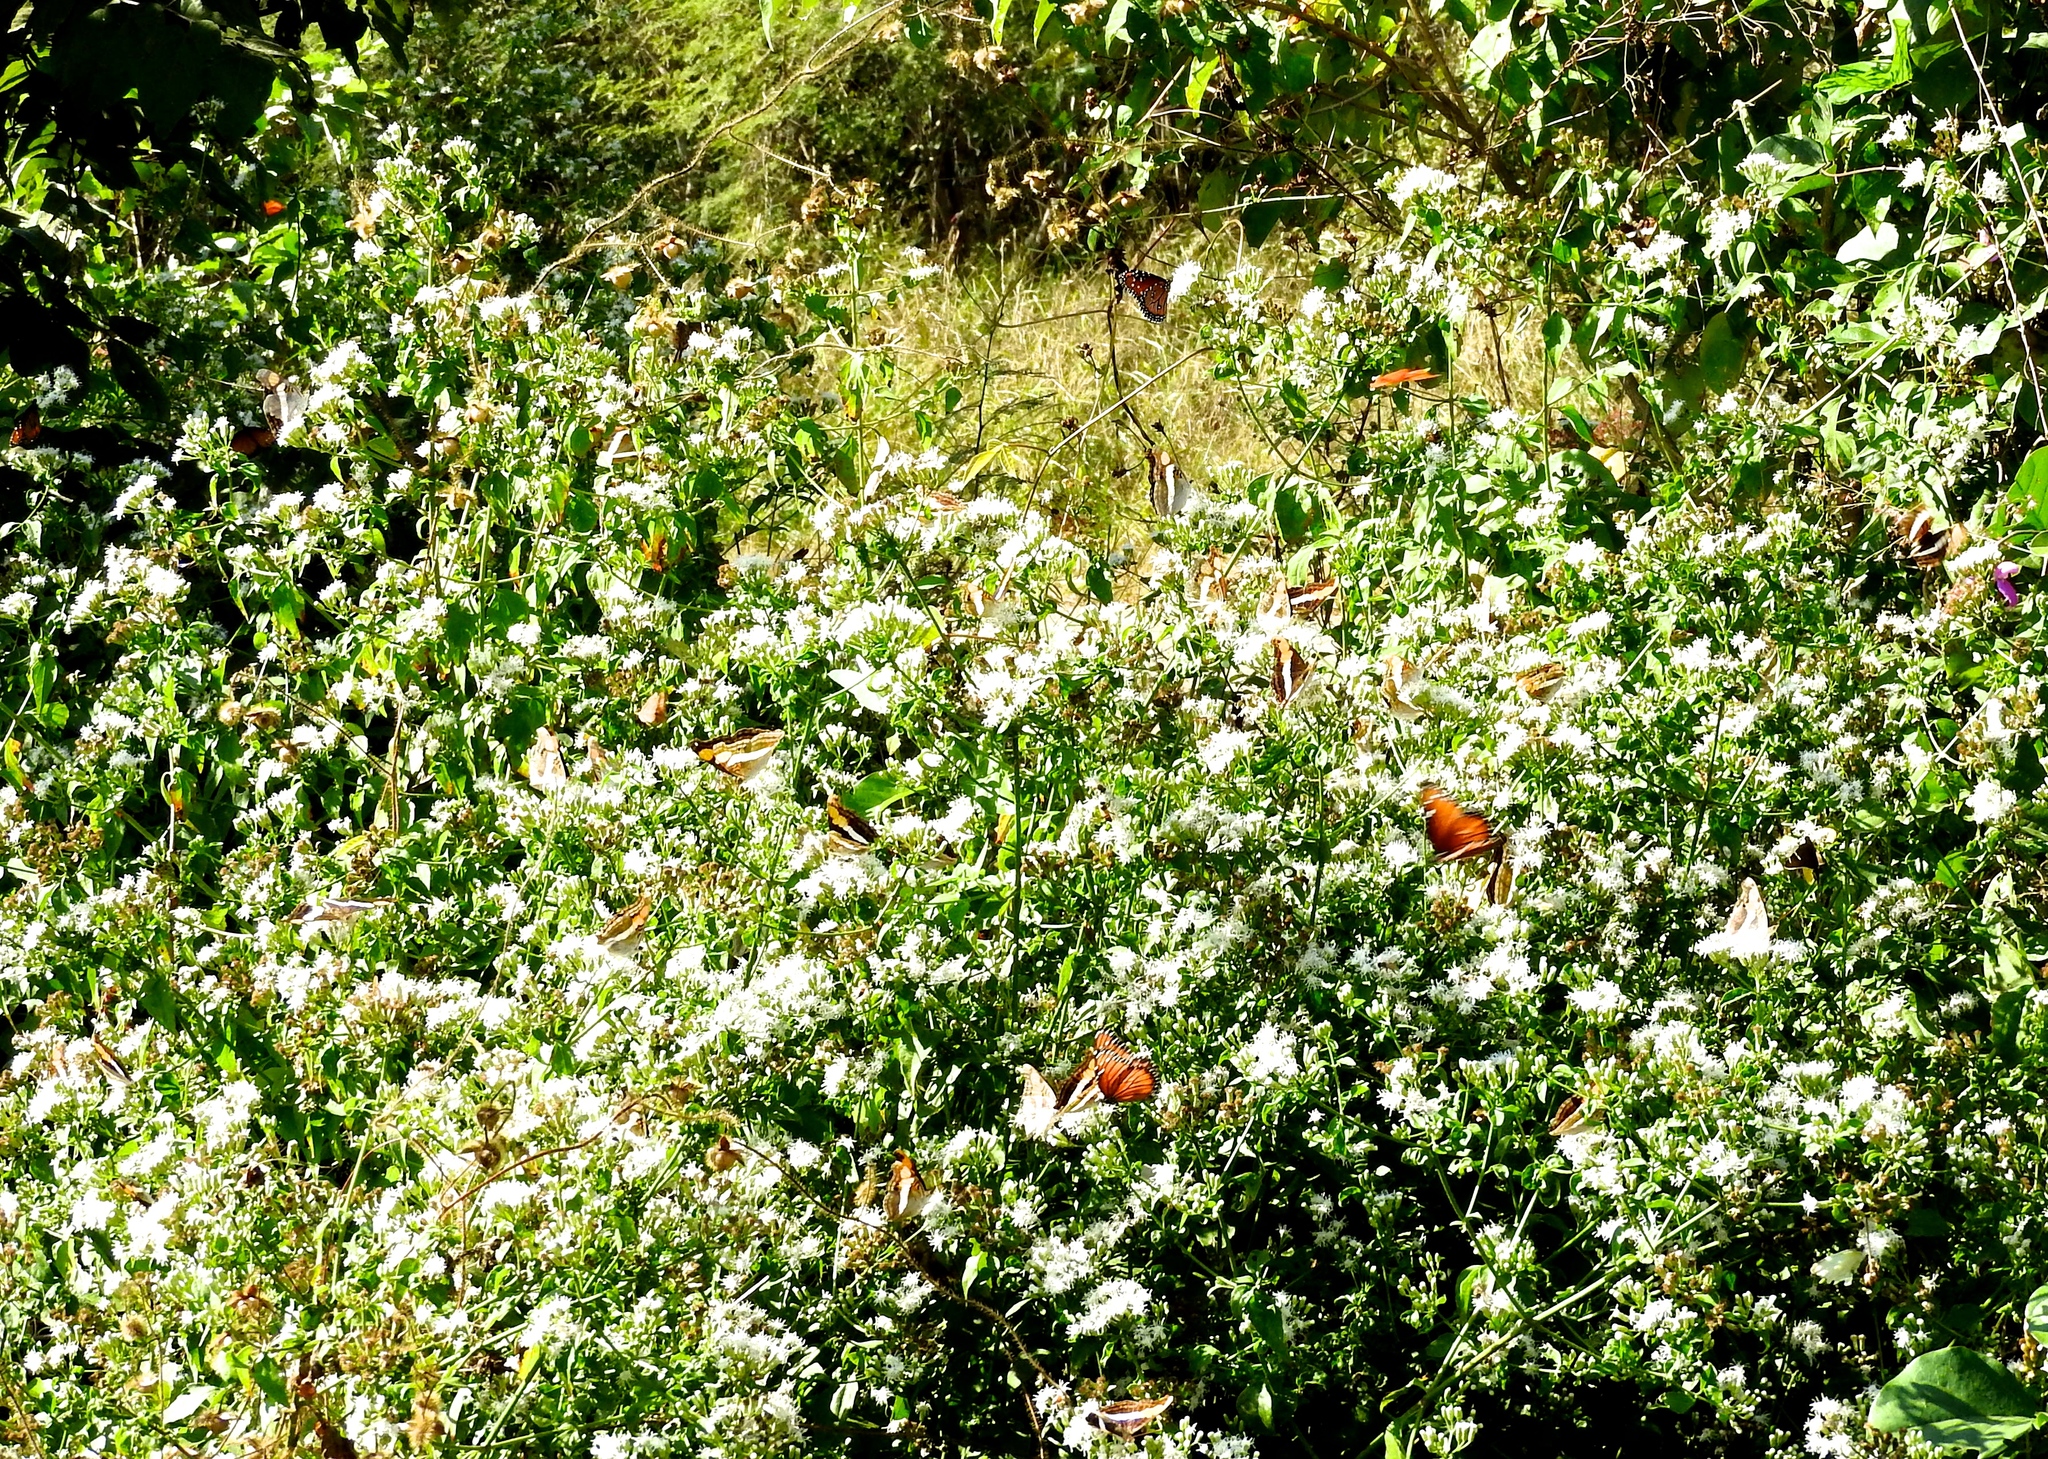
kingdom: Plantae
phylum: Tracheophyta
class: Magnoliopsida
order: Asterales
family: Asteraceae
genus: Chromolaena
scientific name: Chromolaena odorata
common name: Siamweed
